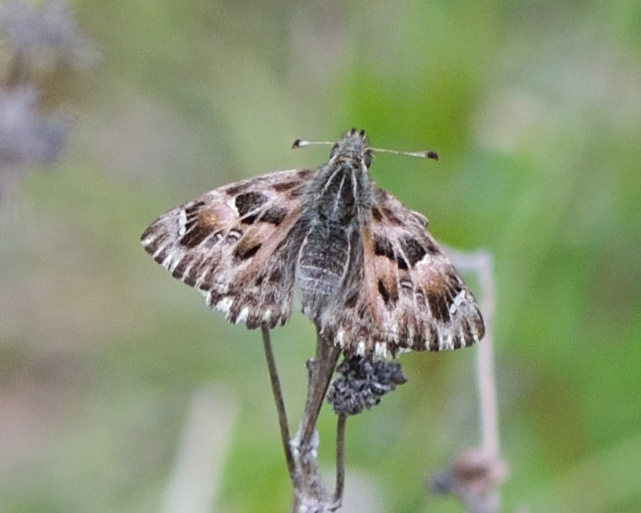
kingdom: Animalia
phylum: Arthropoda
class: Insecta
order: Lepidoptera
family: Hesperiidae
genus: Carcharodus
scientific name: Carcharodus alceae
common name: Mallow skipper
